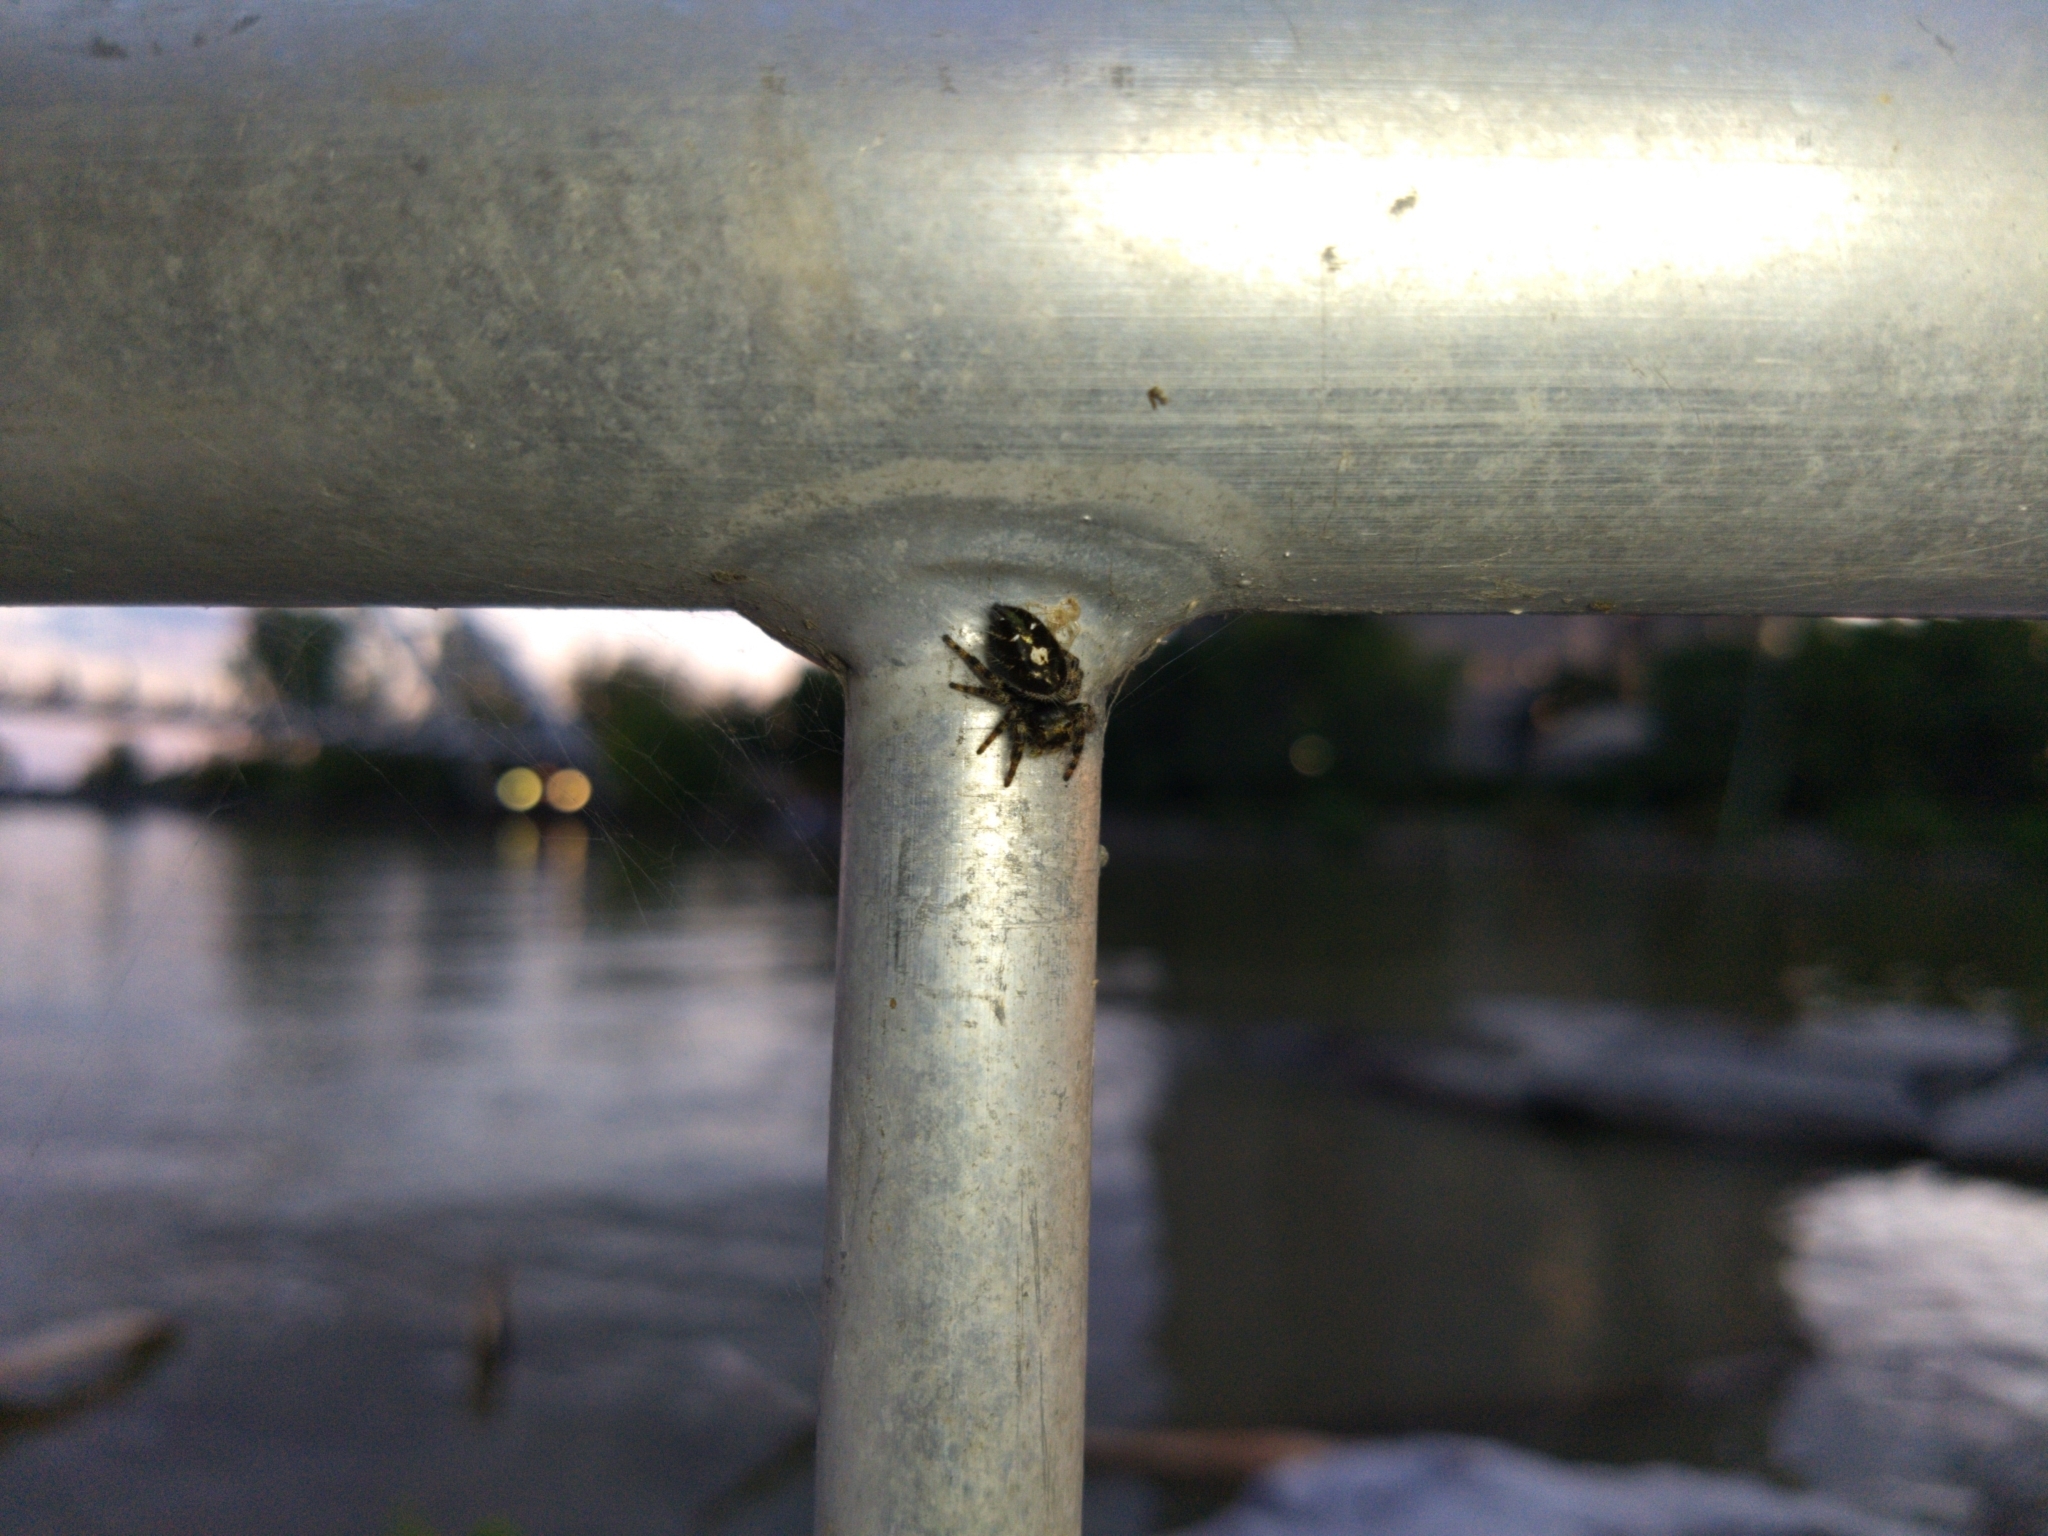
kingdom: Animalia
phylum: Arthropoda
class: Arachnida
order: Araneae
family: Salticidae
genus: Phidippus
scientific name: Phidippus audax
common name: Bold jumper
